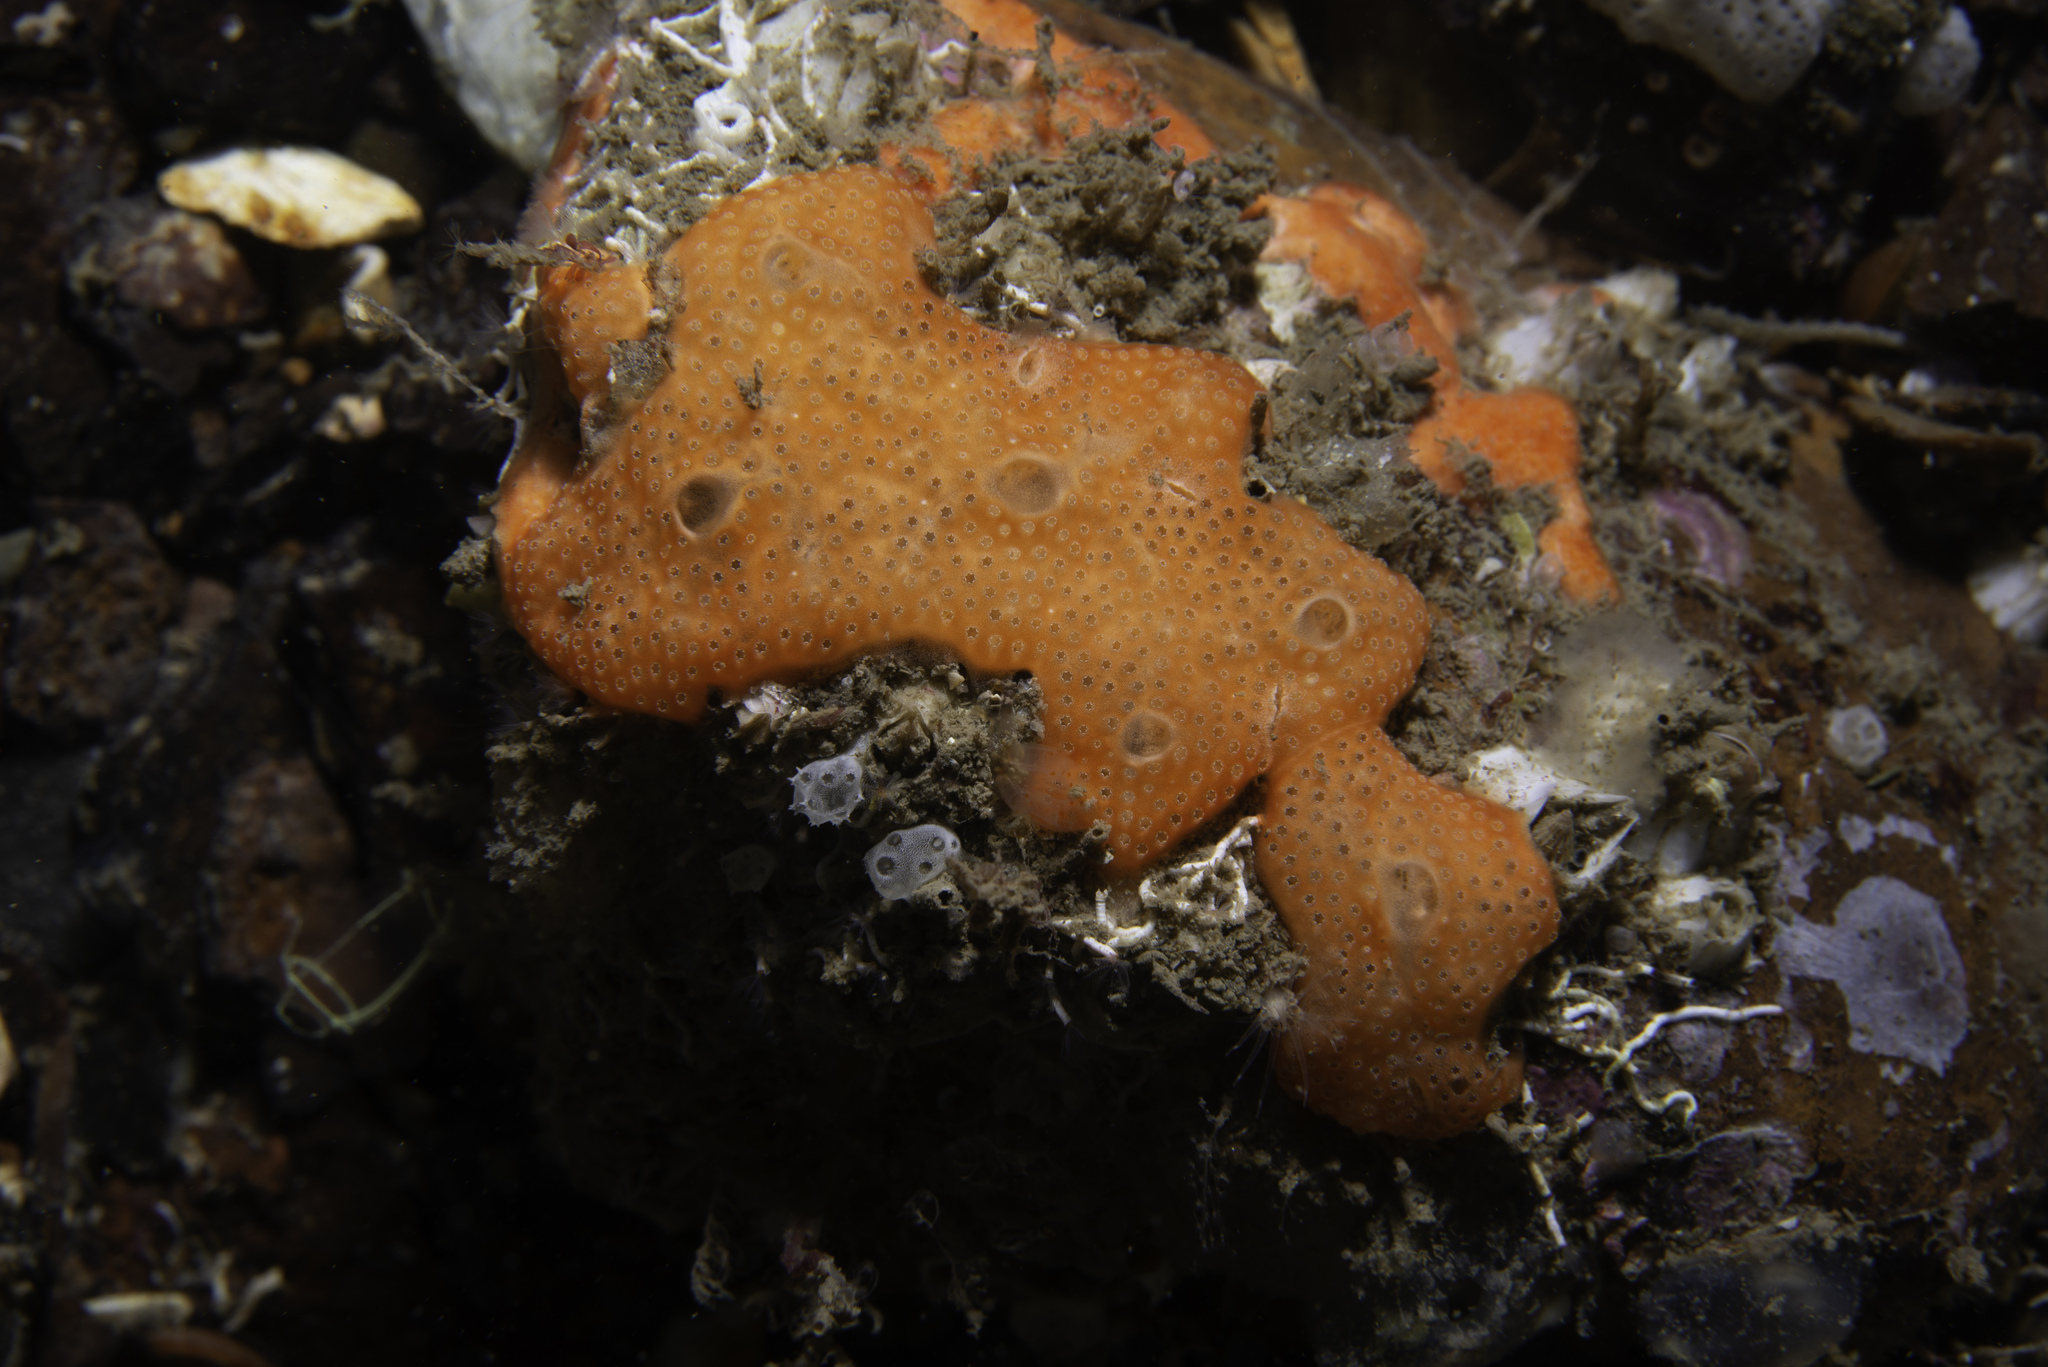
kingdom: Animalia
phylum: Chordata
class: Ascidiacea
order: Aplousobranchia
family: Didemnidae
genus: Didemnum
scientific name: Didemnum pseudofulgens
